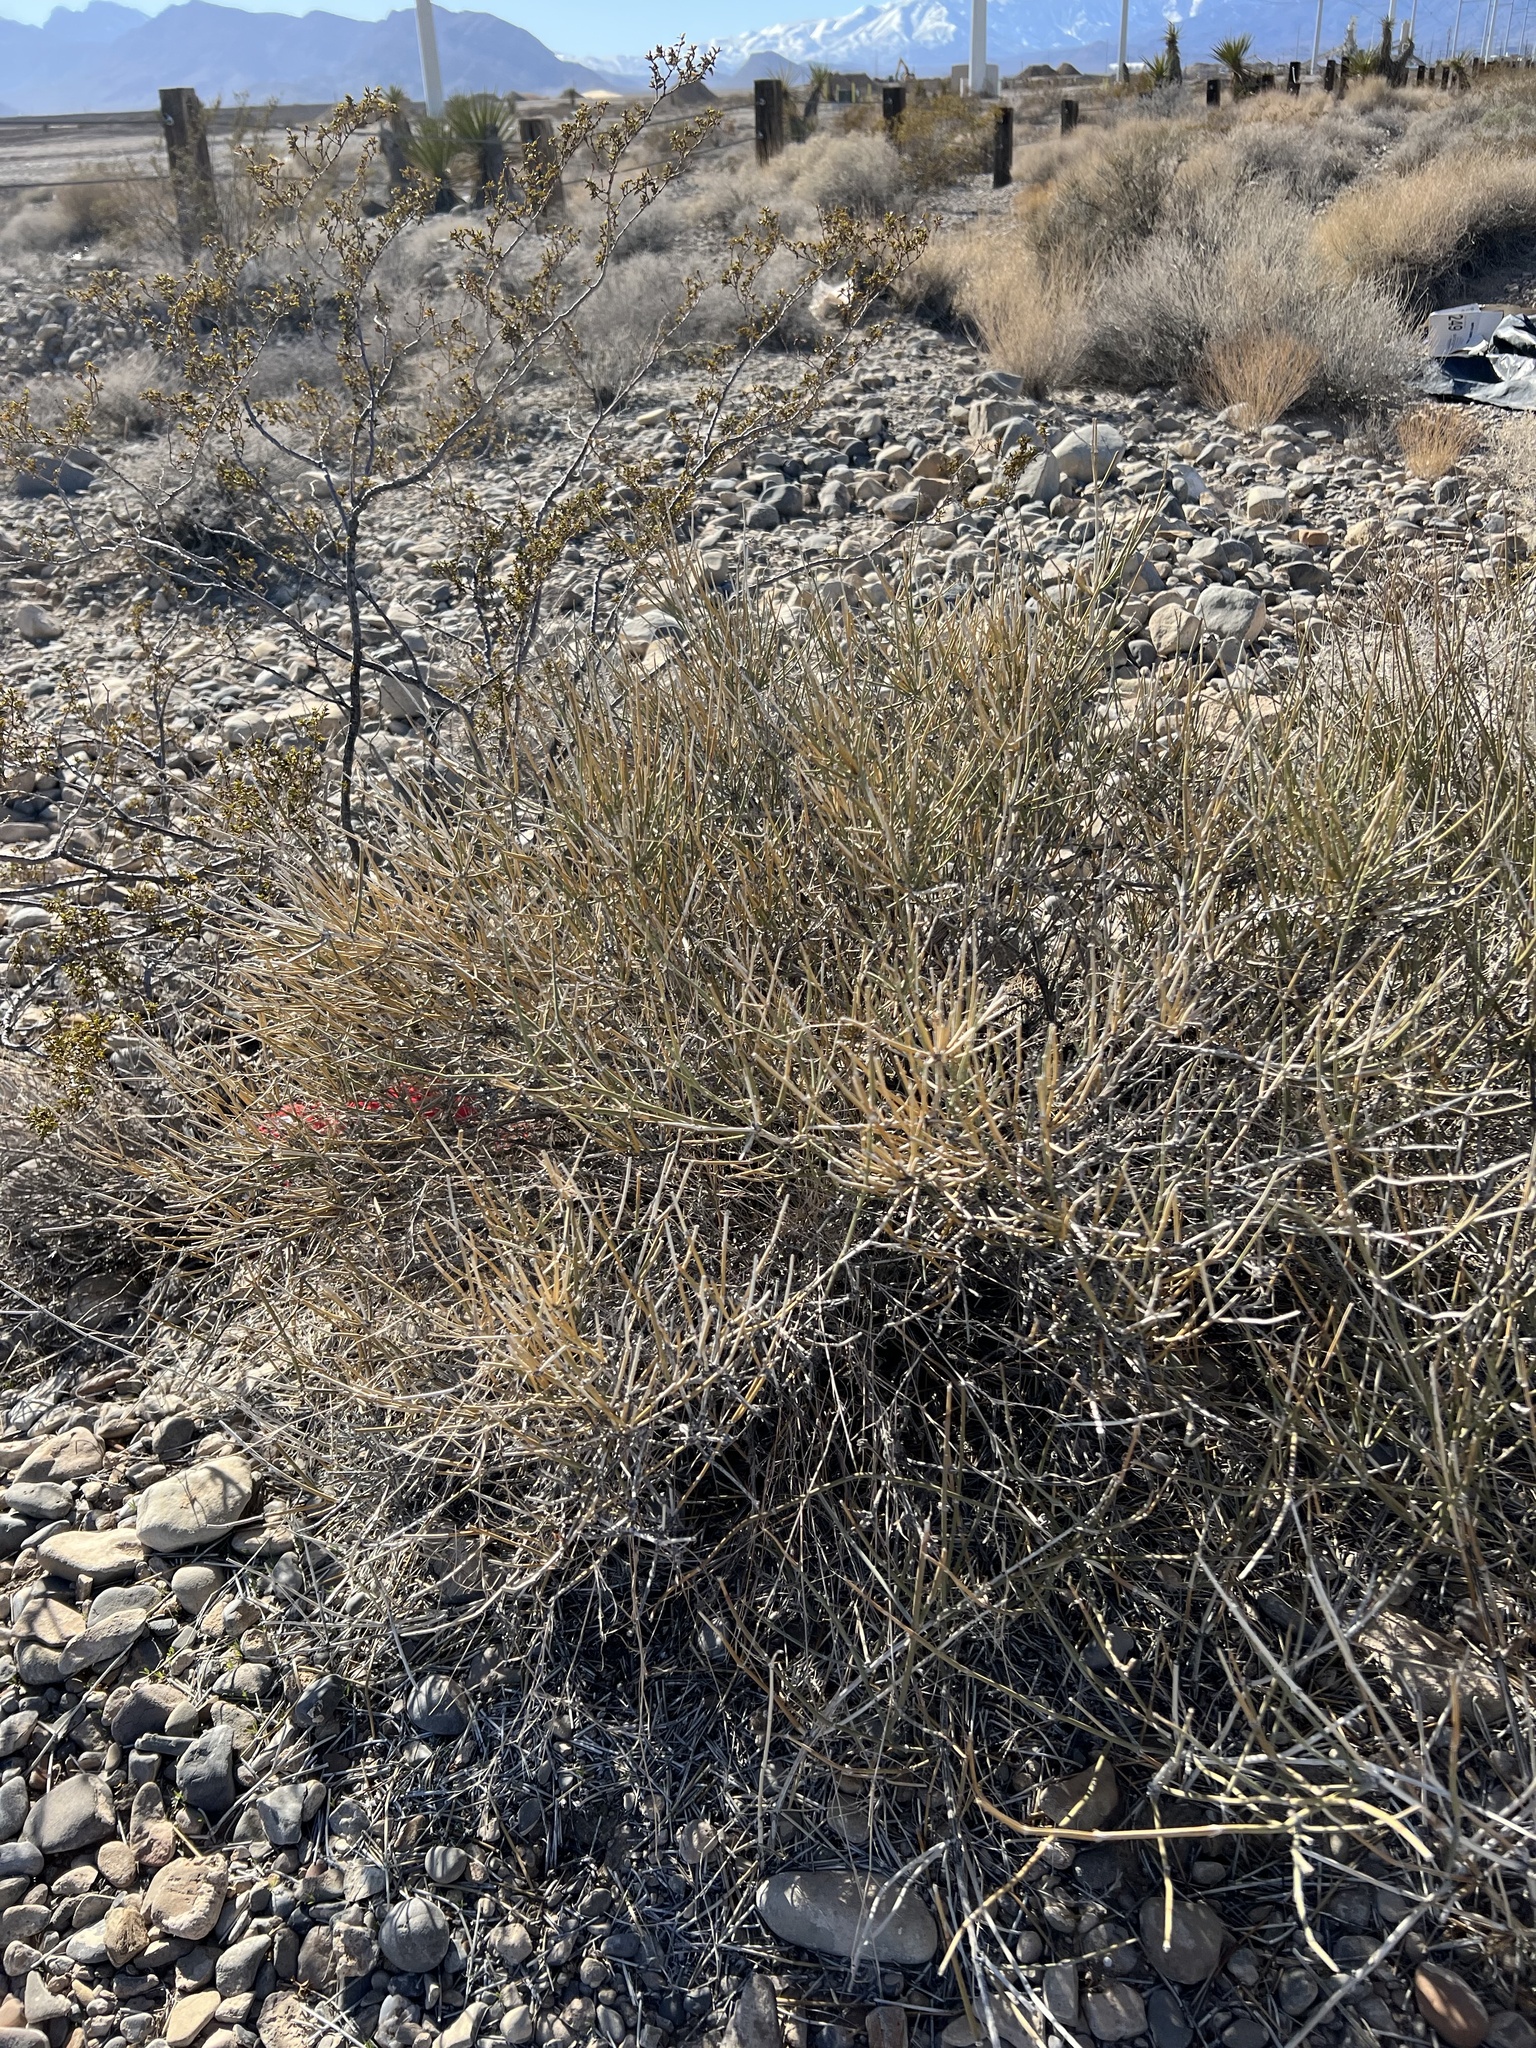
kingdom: Plantae
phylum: Tracheophyta
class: Gnetopsida
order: Ephedrales
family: Ephedraceae
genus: Ephedra
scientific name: Ephedra nevadensis
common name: Gray ephedra
